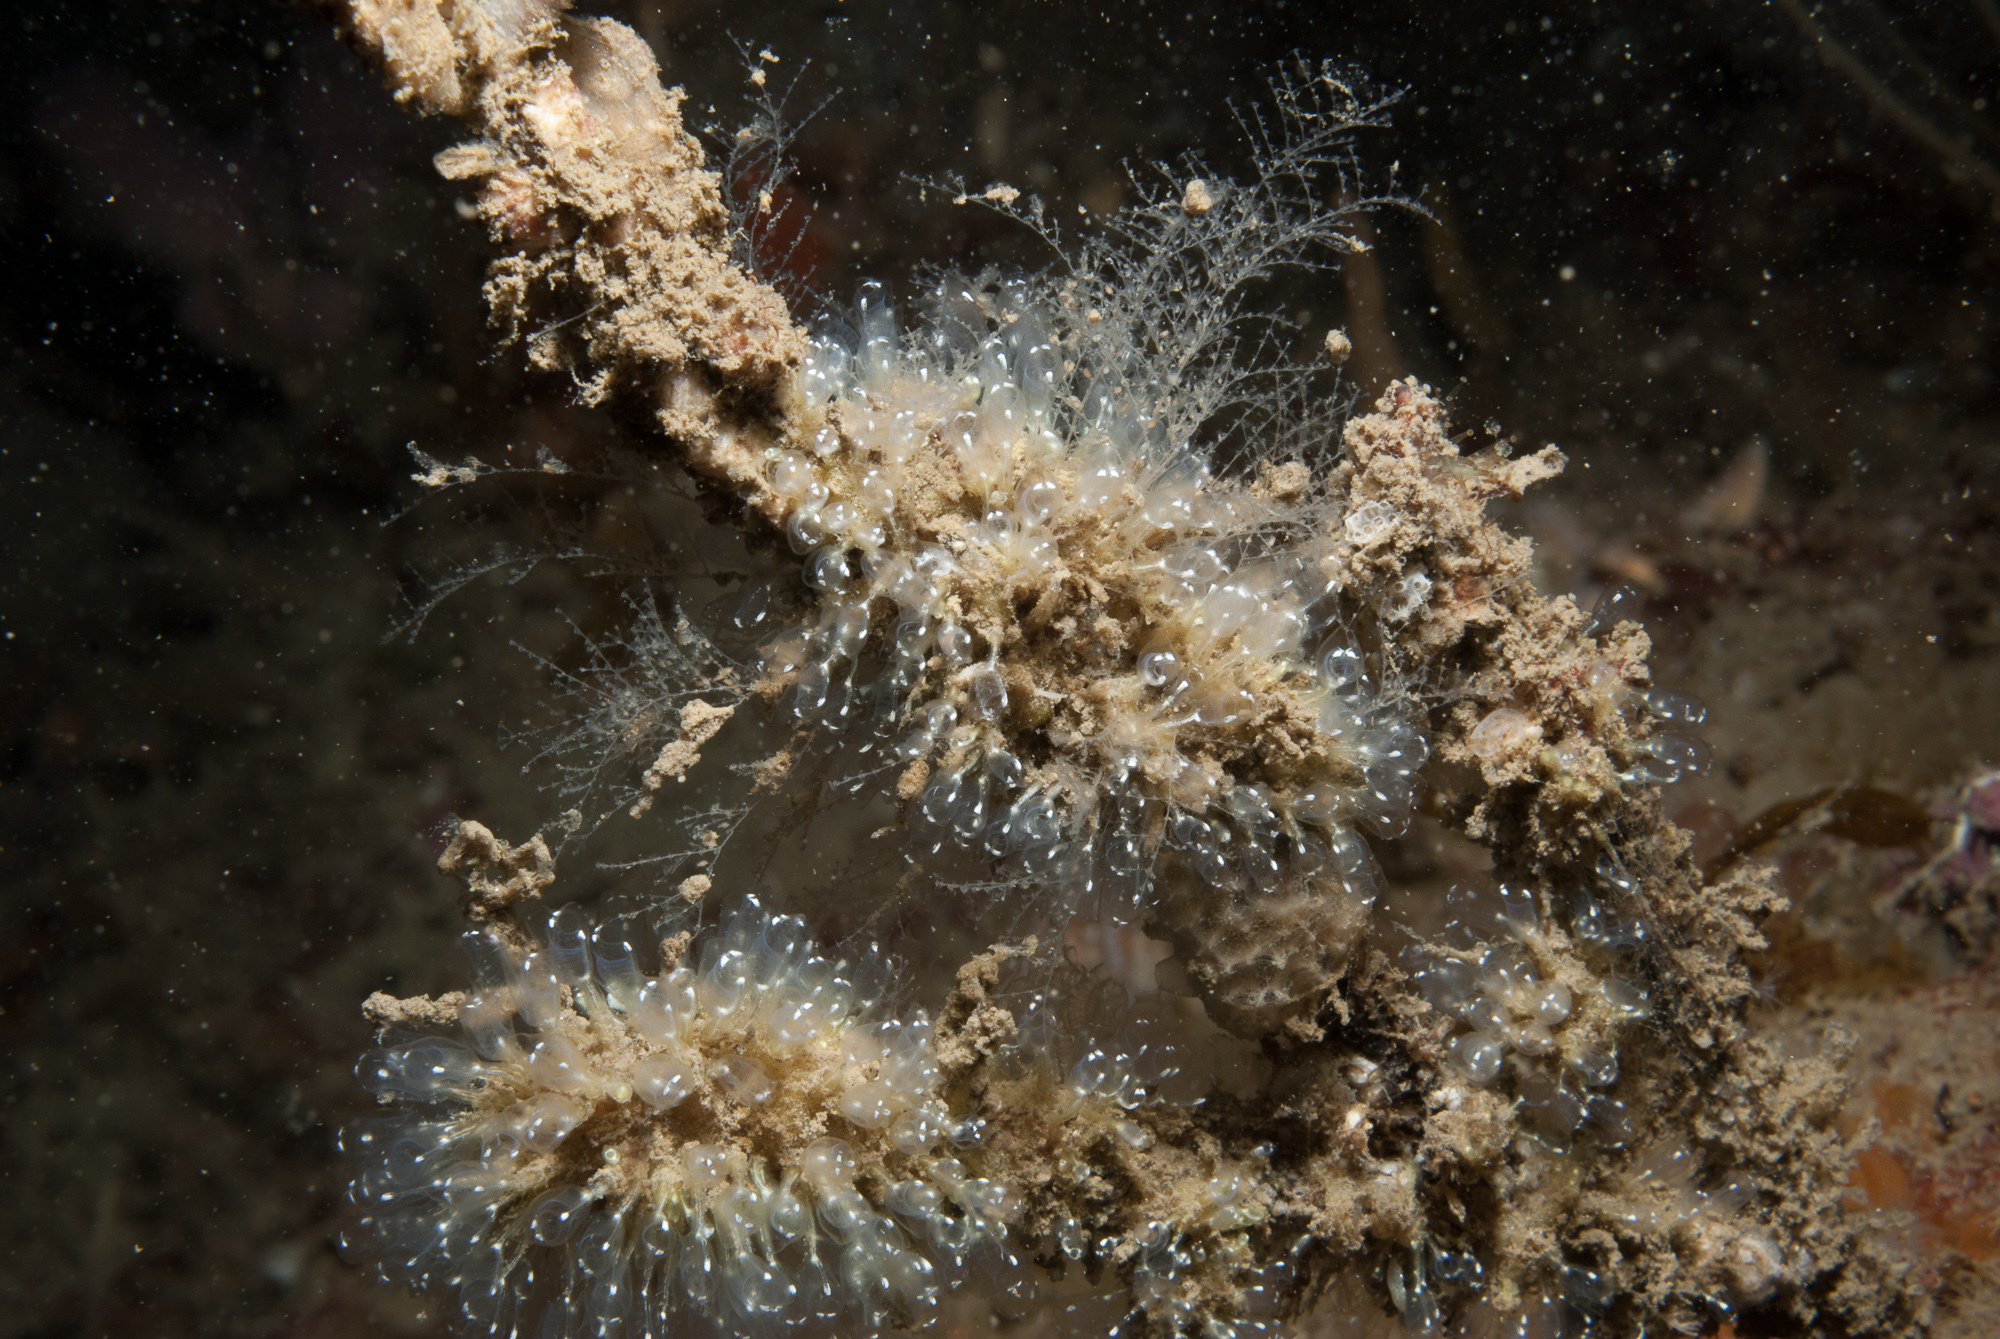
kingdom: Animalia
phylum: Chordata
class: Ascidiacea
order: Aplousobranchia
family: Clavelinidae
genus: Pycnoclavella
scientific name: Pycnoclavella aurilucens
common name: Orange lights seasquirt
